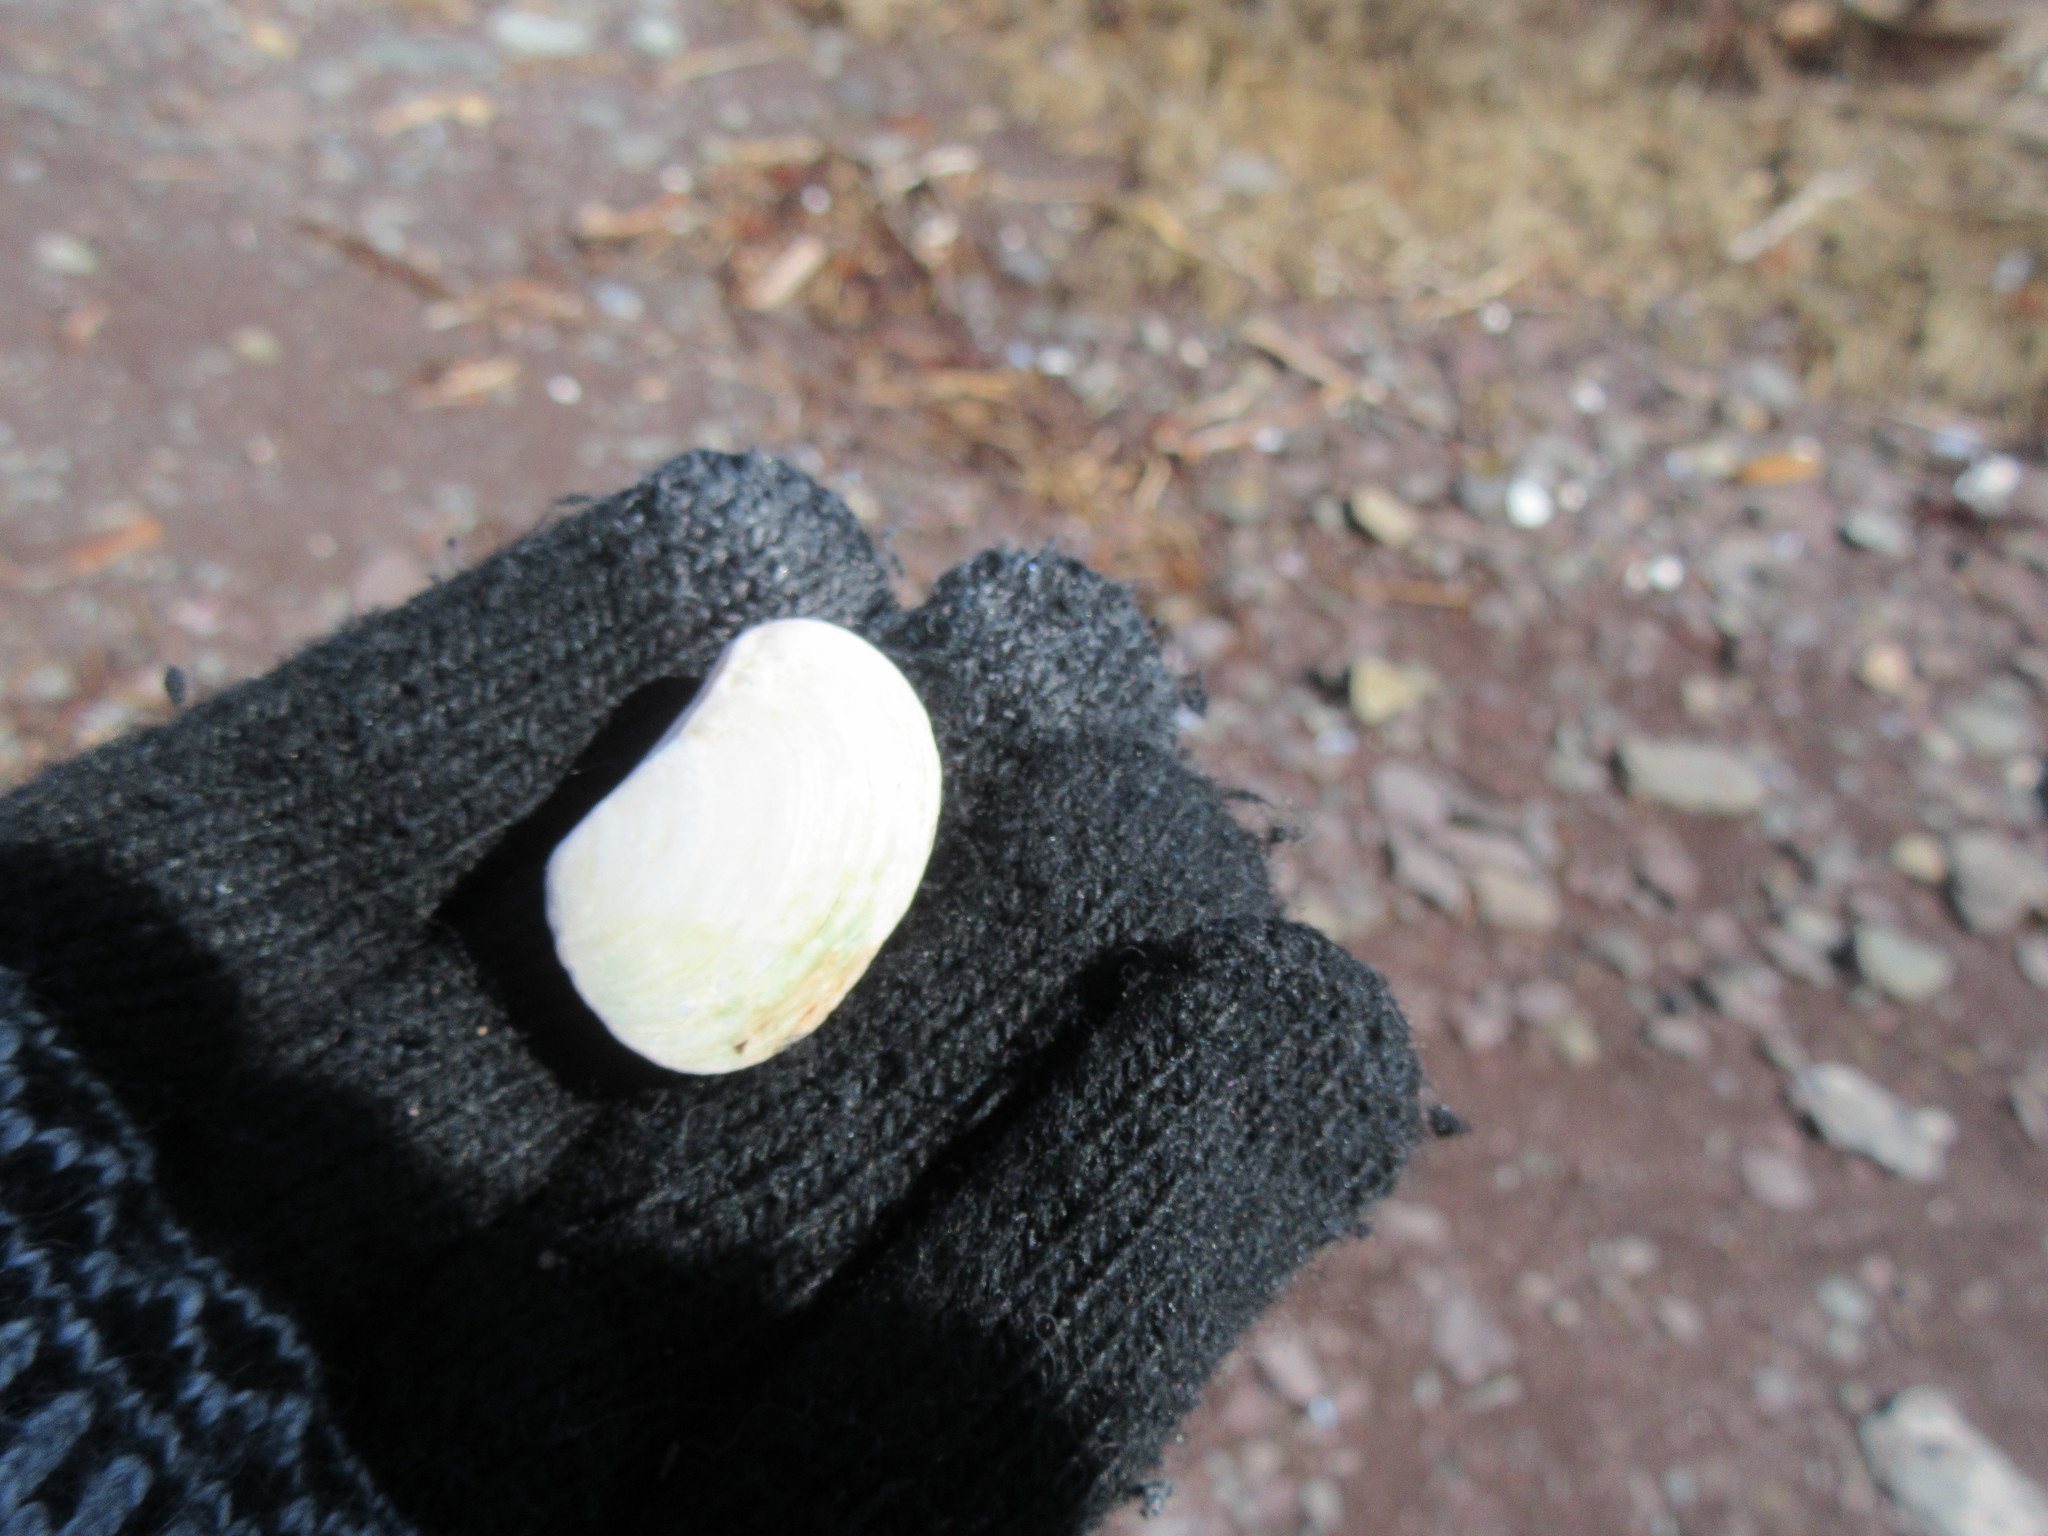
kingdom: Animalia
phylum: Mollusca
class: Bivalvia
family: Pandoridae
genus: Pandora
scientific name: Pandora gouldiana
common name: Rounded pandora
